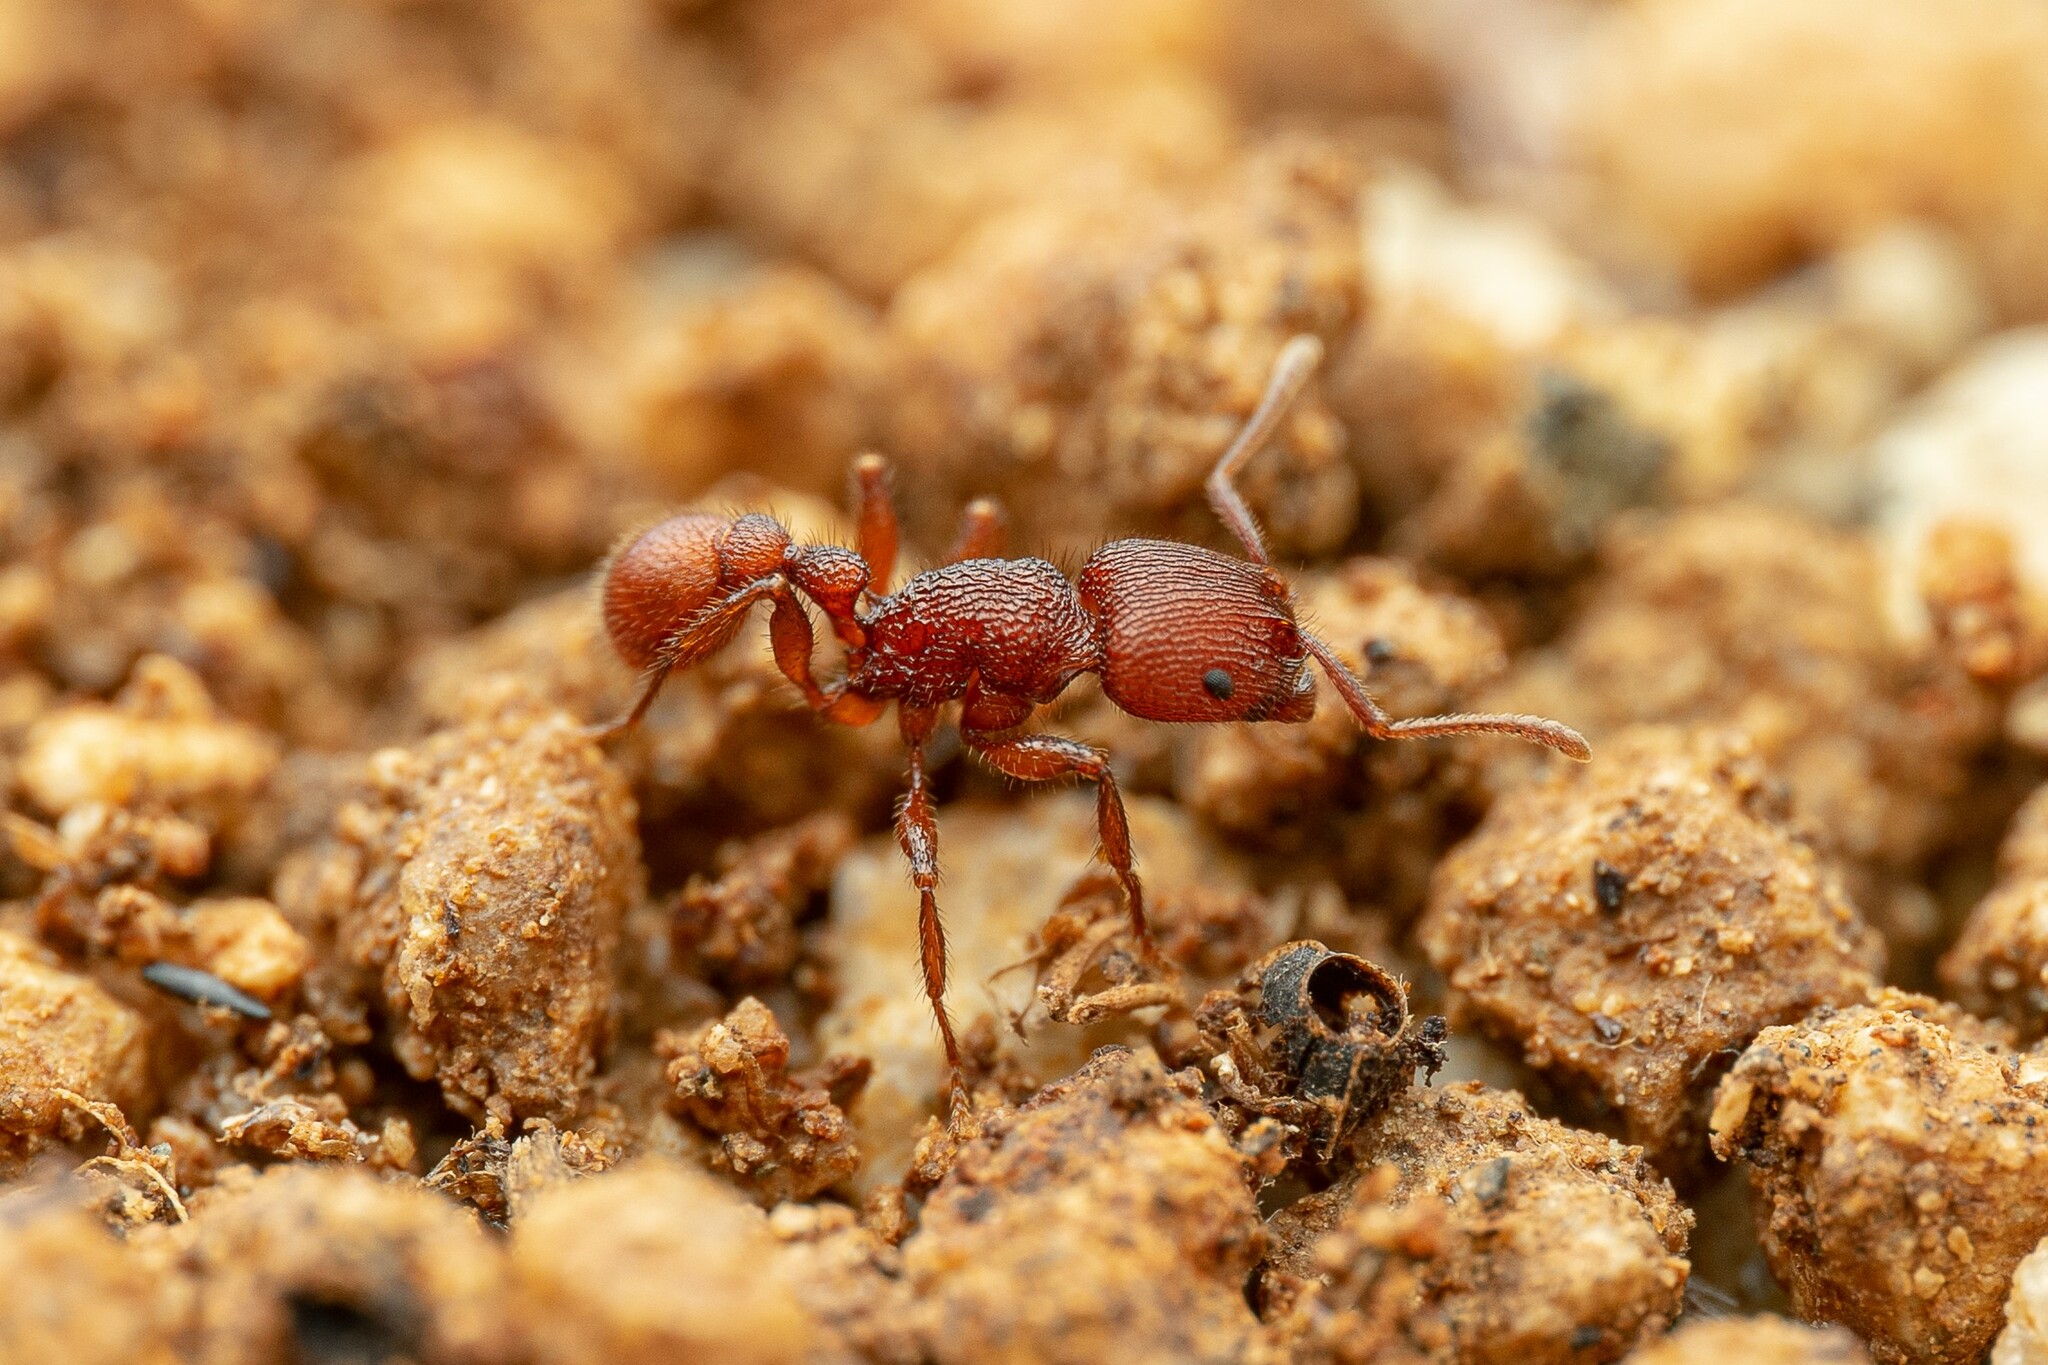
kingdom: Animalia
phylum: Arthropoda
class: Insecta
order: Hymenoptera
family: Formicidae
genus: Pogonomyrmex
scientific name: Pogonomyrmex imberbiculus
